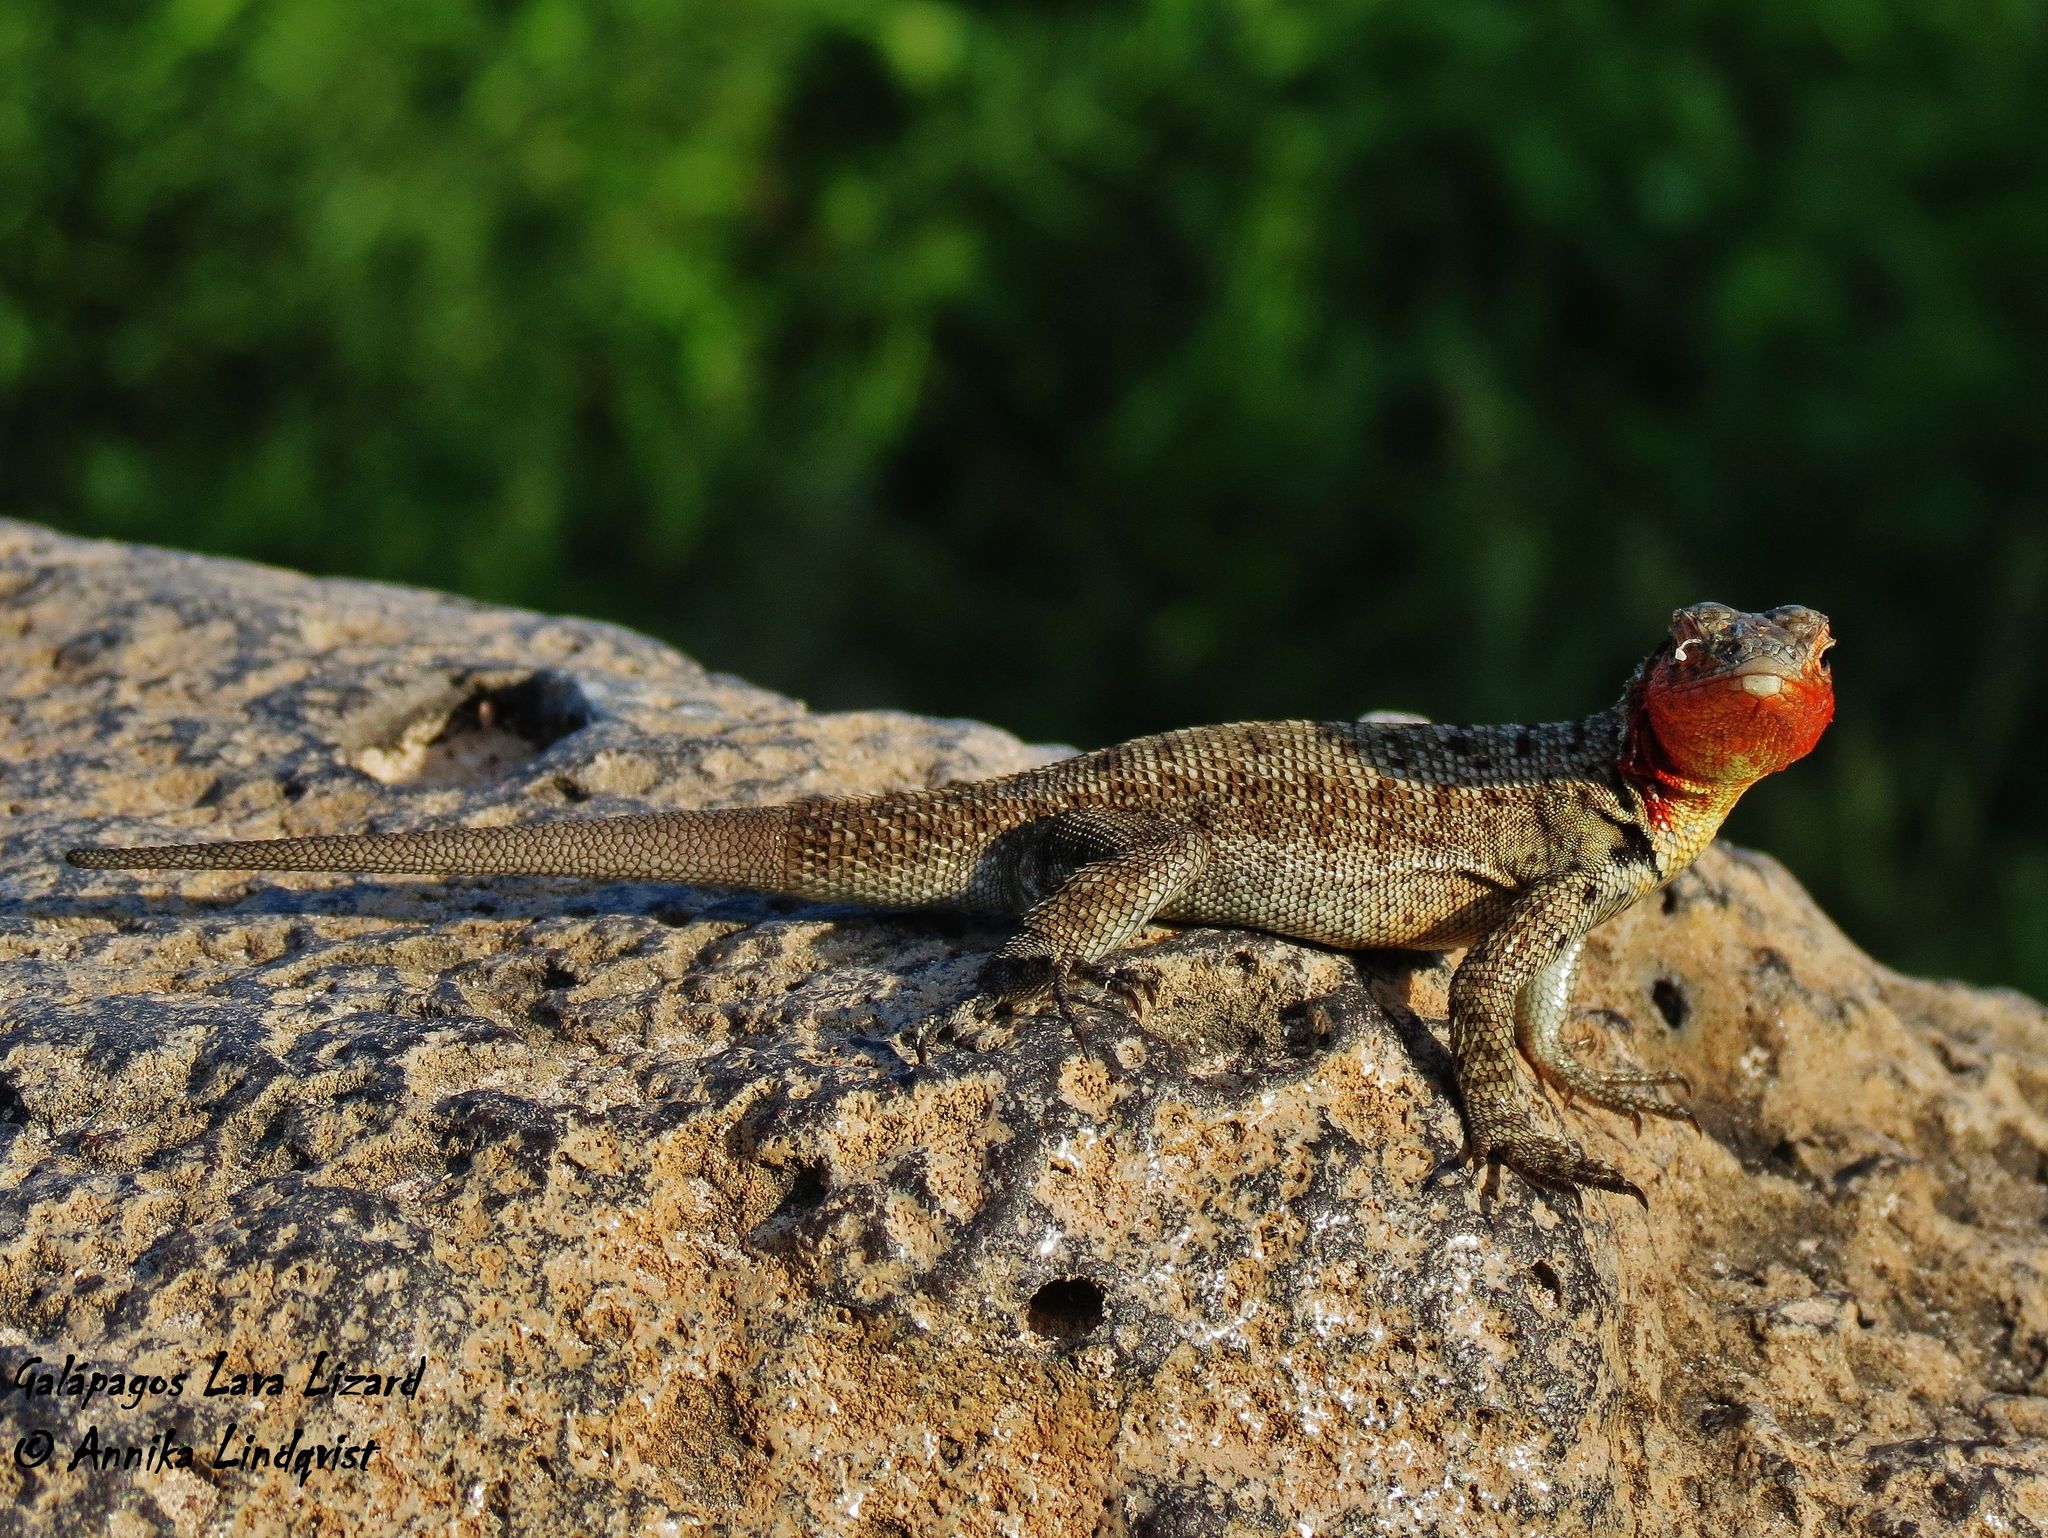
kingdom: Animalia
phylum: Chordata
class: Squamata
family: Tropiduridae
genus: Microlophus
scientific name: Microlophus barringtonensis
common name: Galapagos lava lizard
